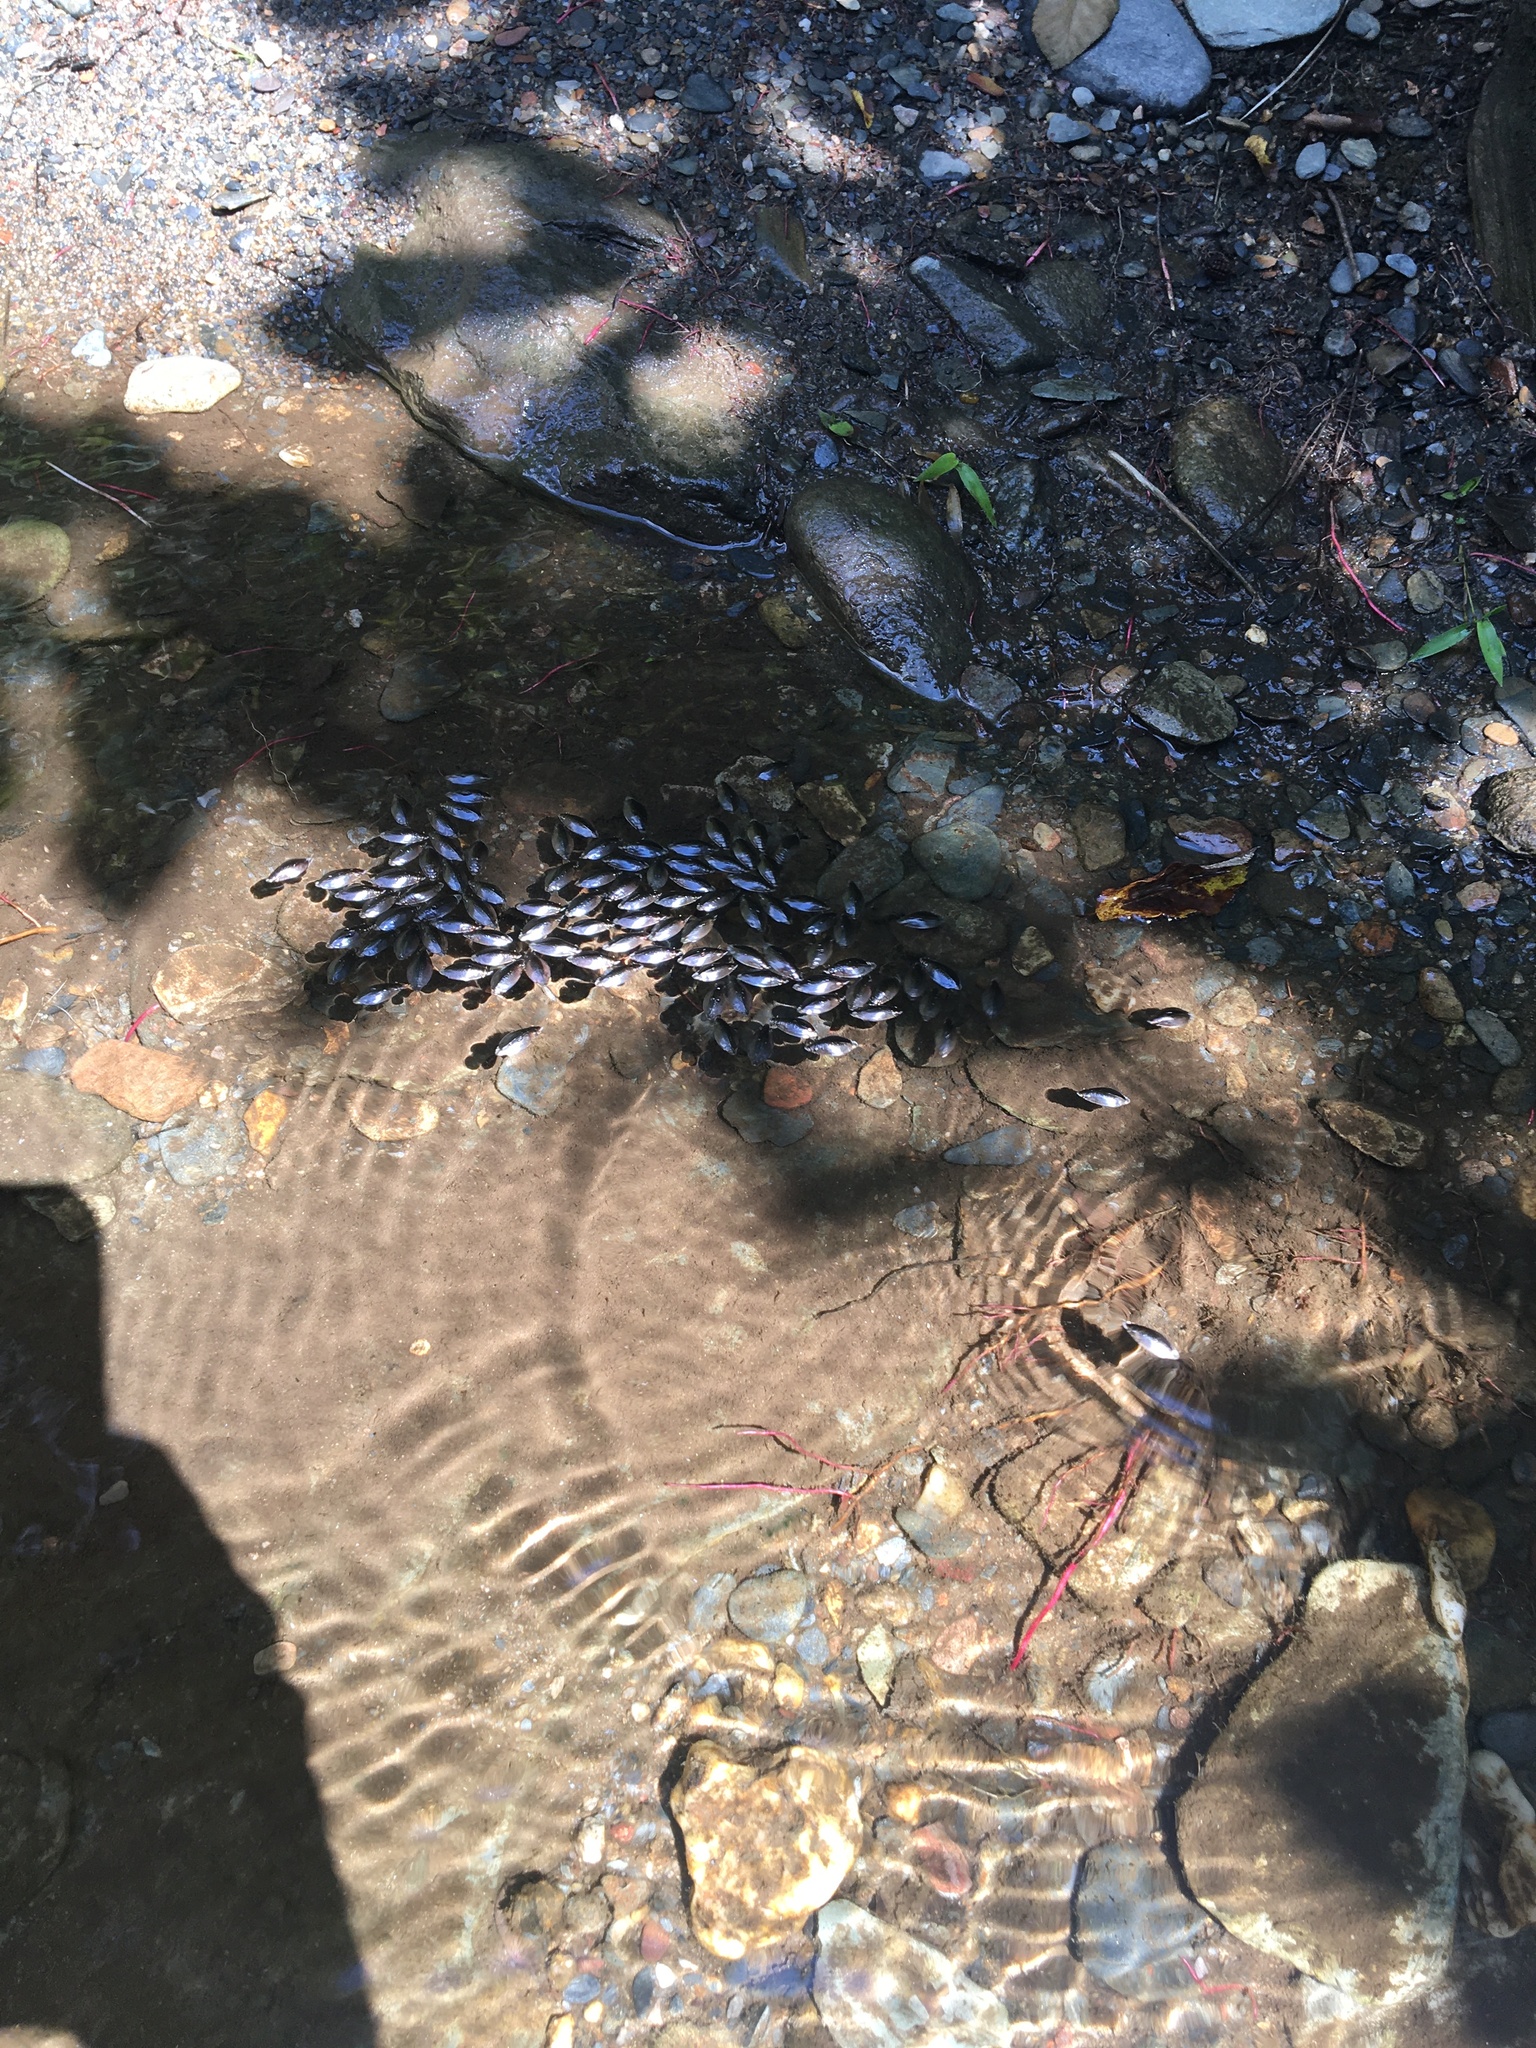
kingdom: Animalia
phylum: Arthropoda
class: Insecta
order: Coleoptera
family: Gyrinidae
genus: Dineutus
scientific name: Dineutus
